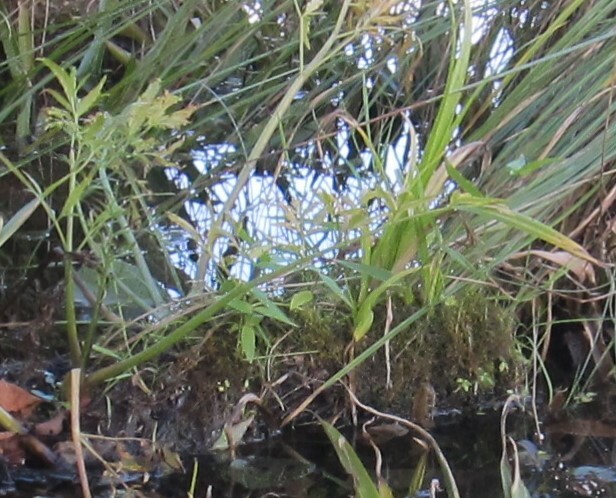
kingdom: Plantae
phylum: Tracheophyta
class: Magnoliopsida
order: Apiales
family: Apiaceae
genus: Cicuta
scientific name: Cicuta virosa
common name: Cowbane
